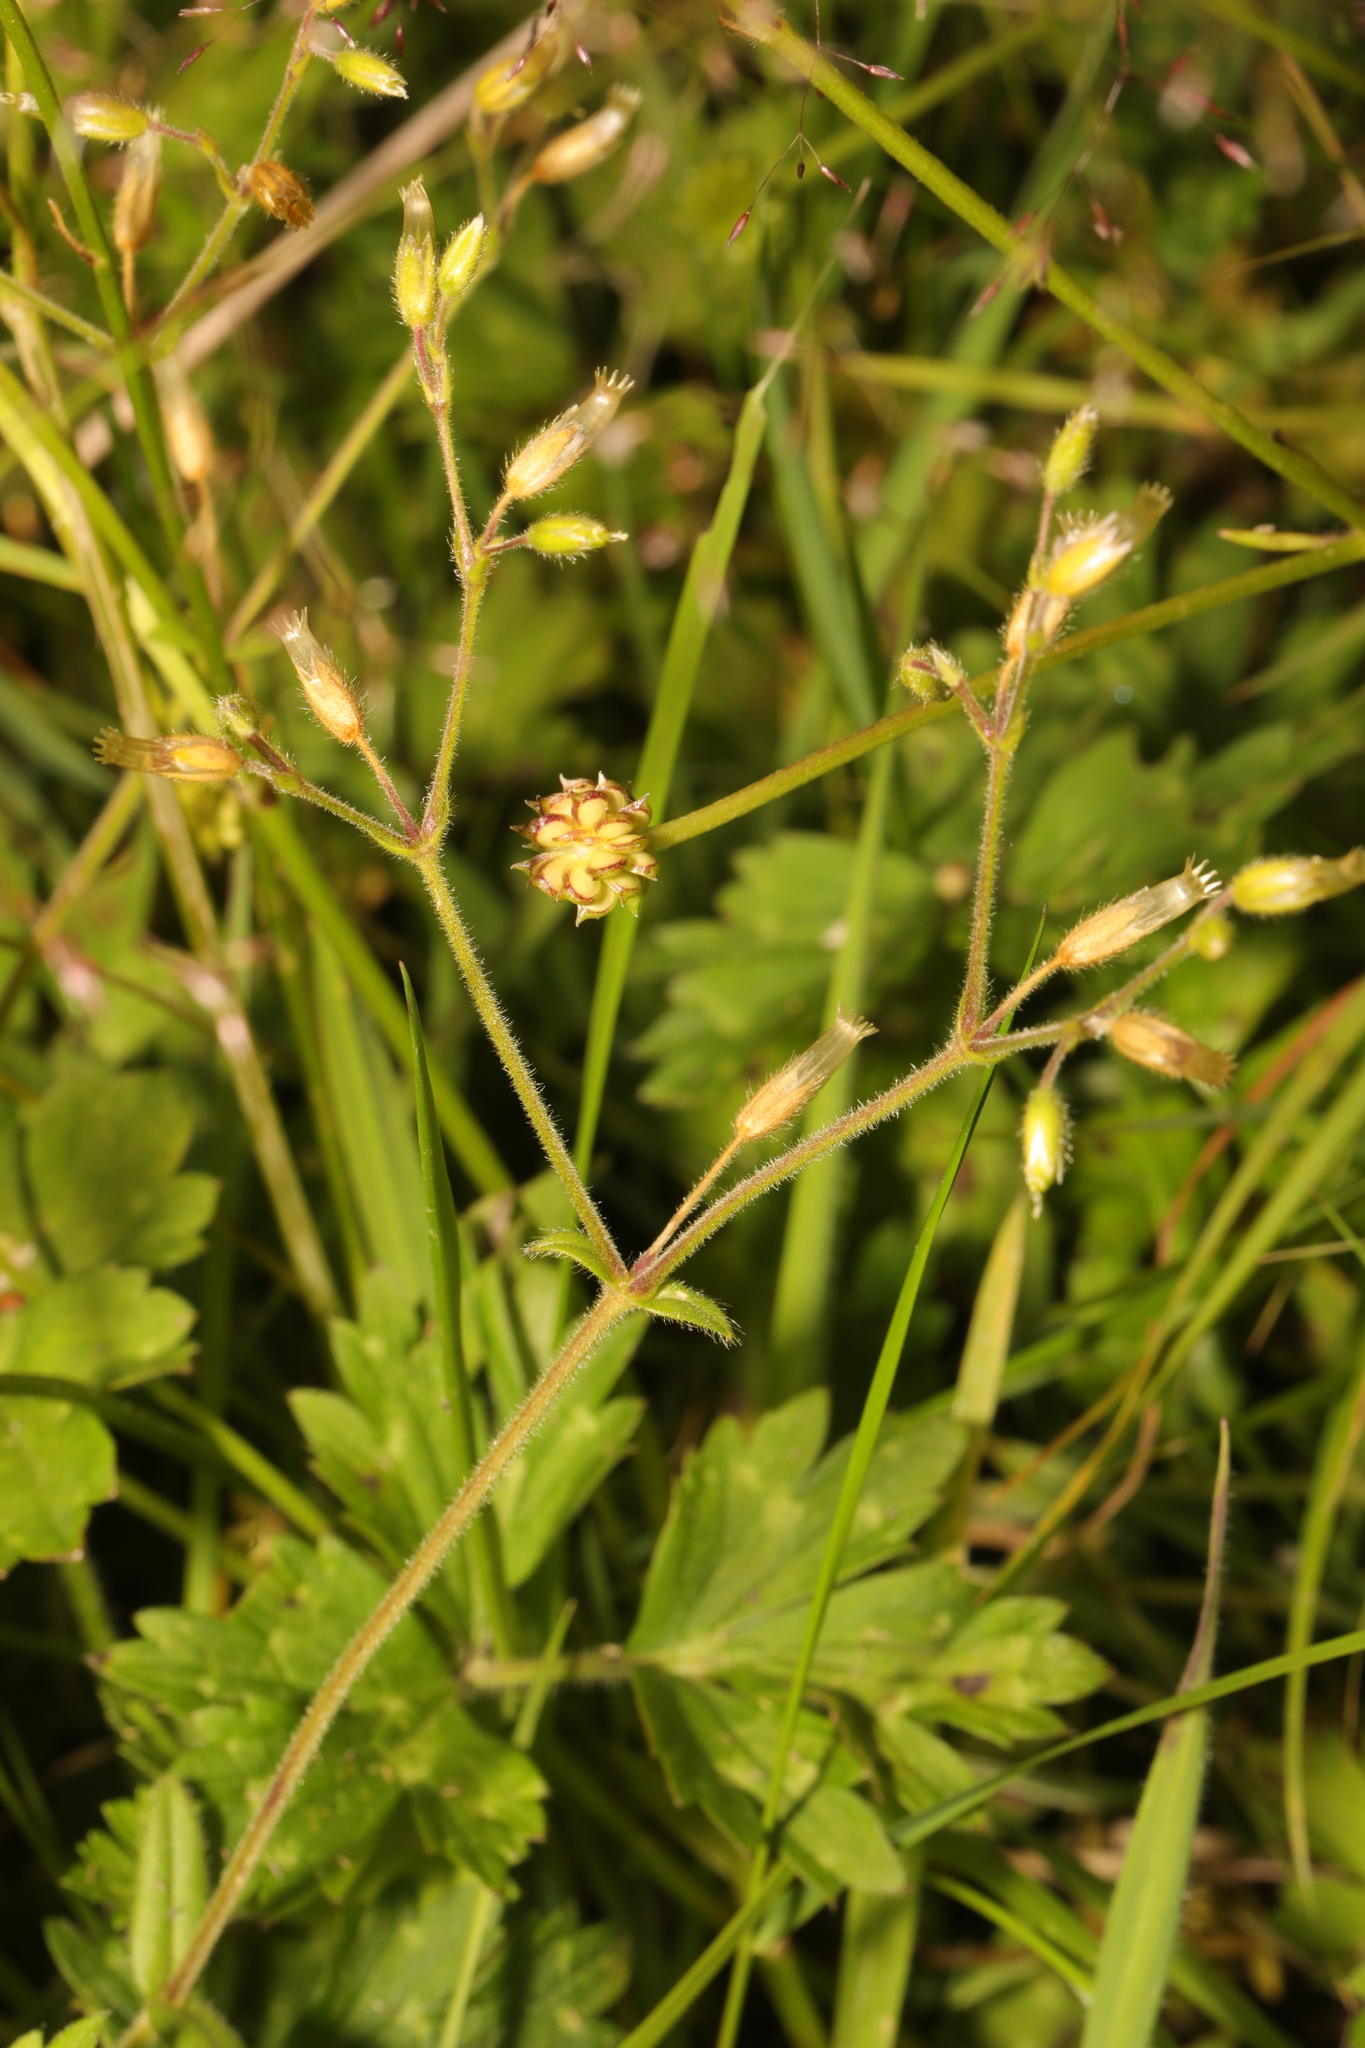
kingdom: Plantae
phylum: Tracheophyta
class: Magnoliopsida
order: Caryophyllales
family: Caryophyllaceae
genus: Cerastium
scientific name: Cerastium fontanum
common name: Common mouse-ear
